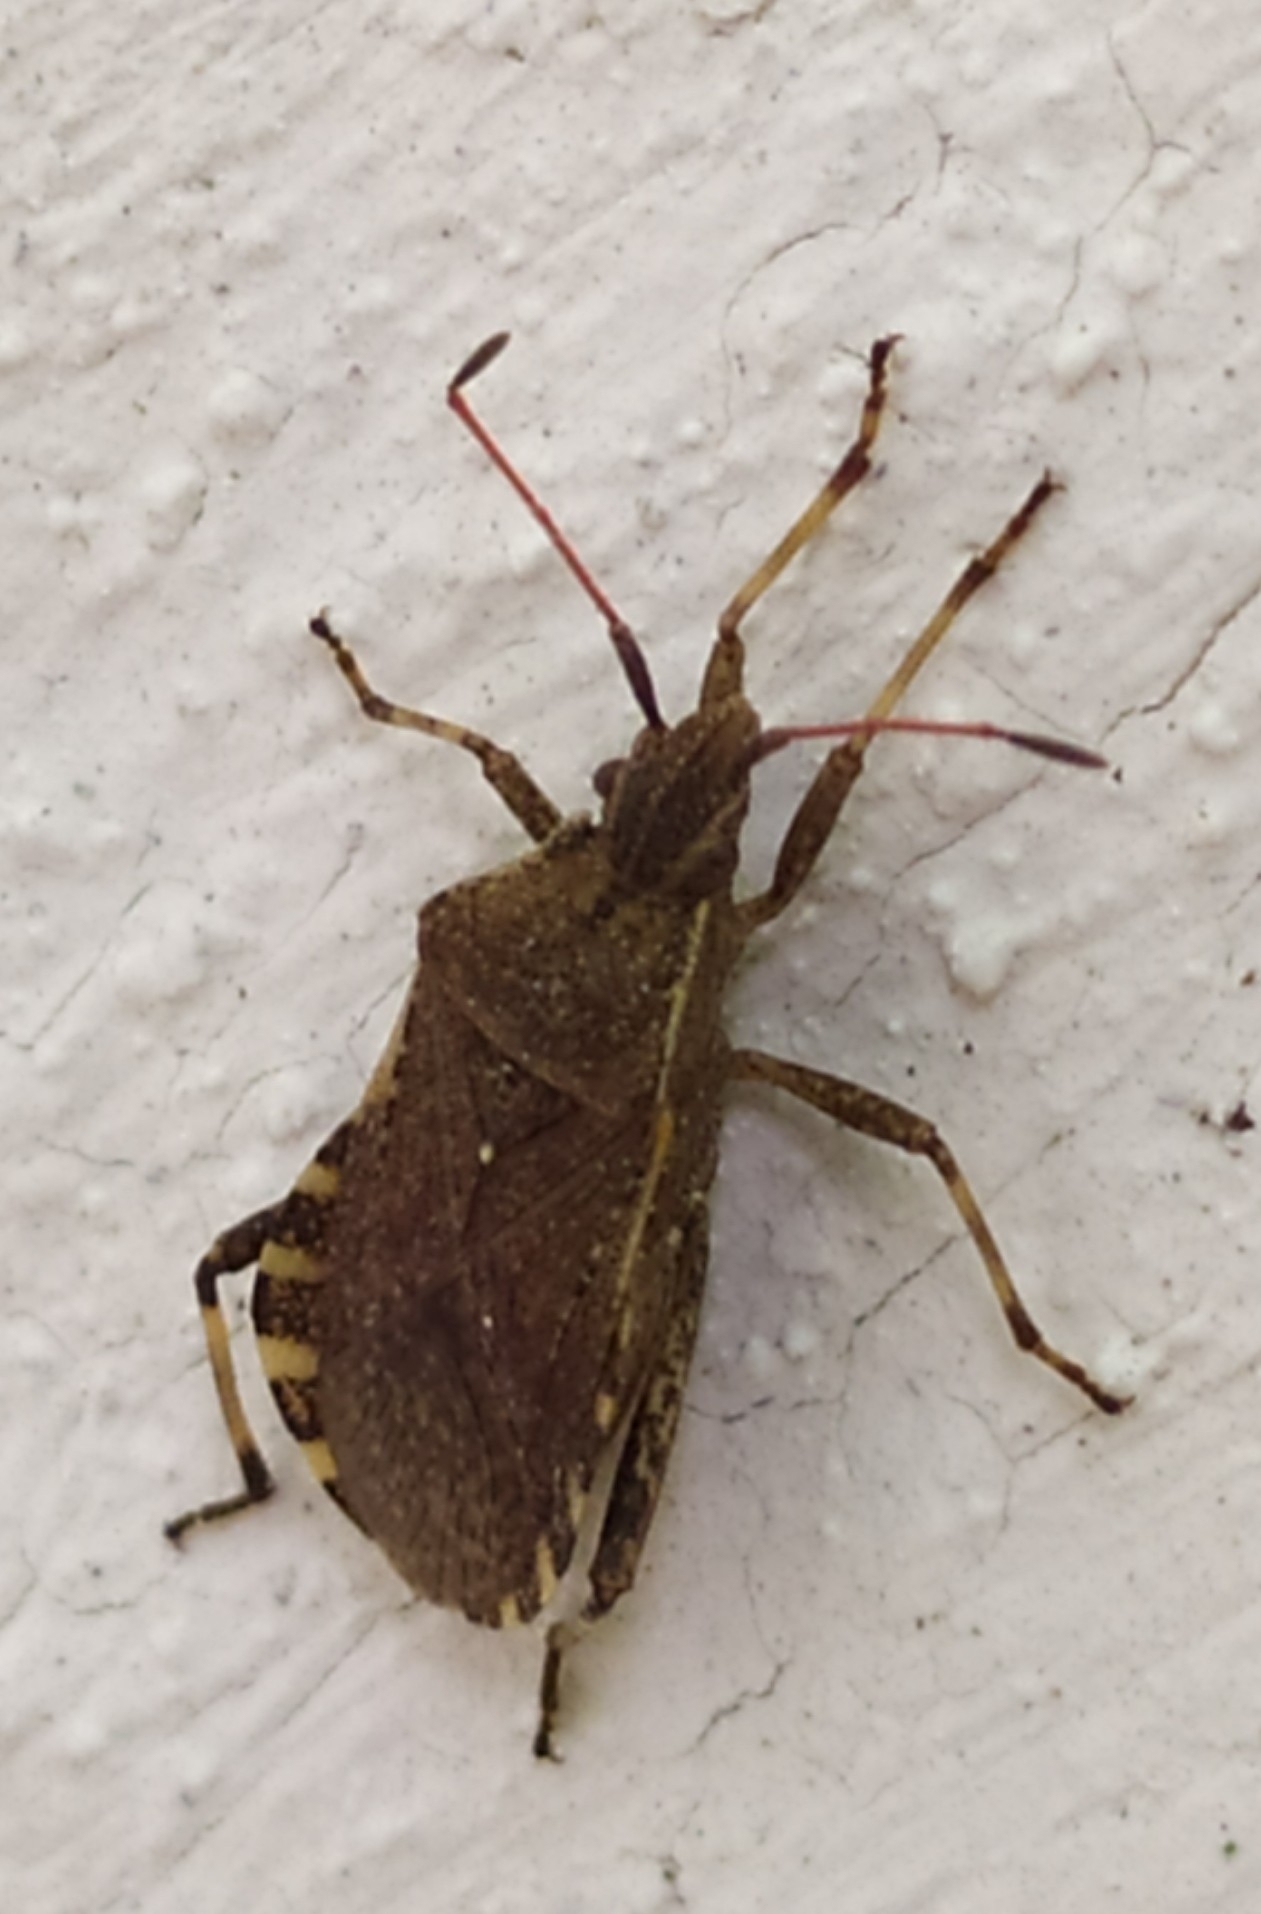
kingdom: Animalia
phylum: Arthropoda
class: Insecta
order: Hemiptera
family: Coreidae
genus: Ceraleptus
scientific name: Ceraleptus gracilicornis
